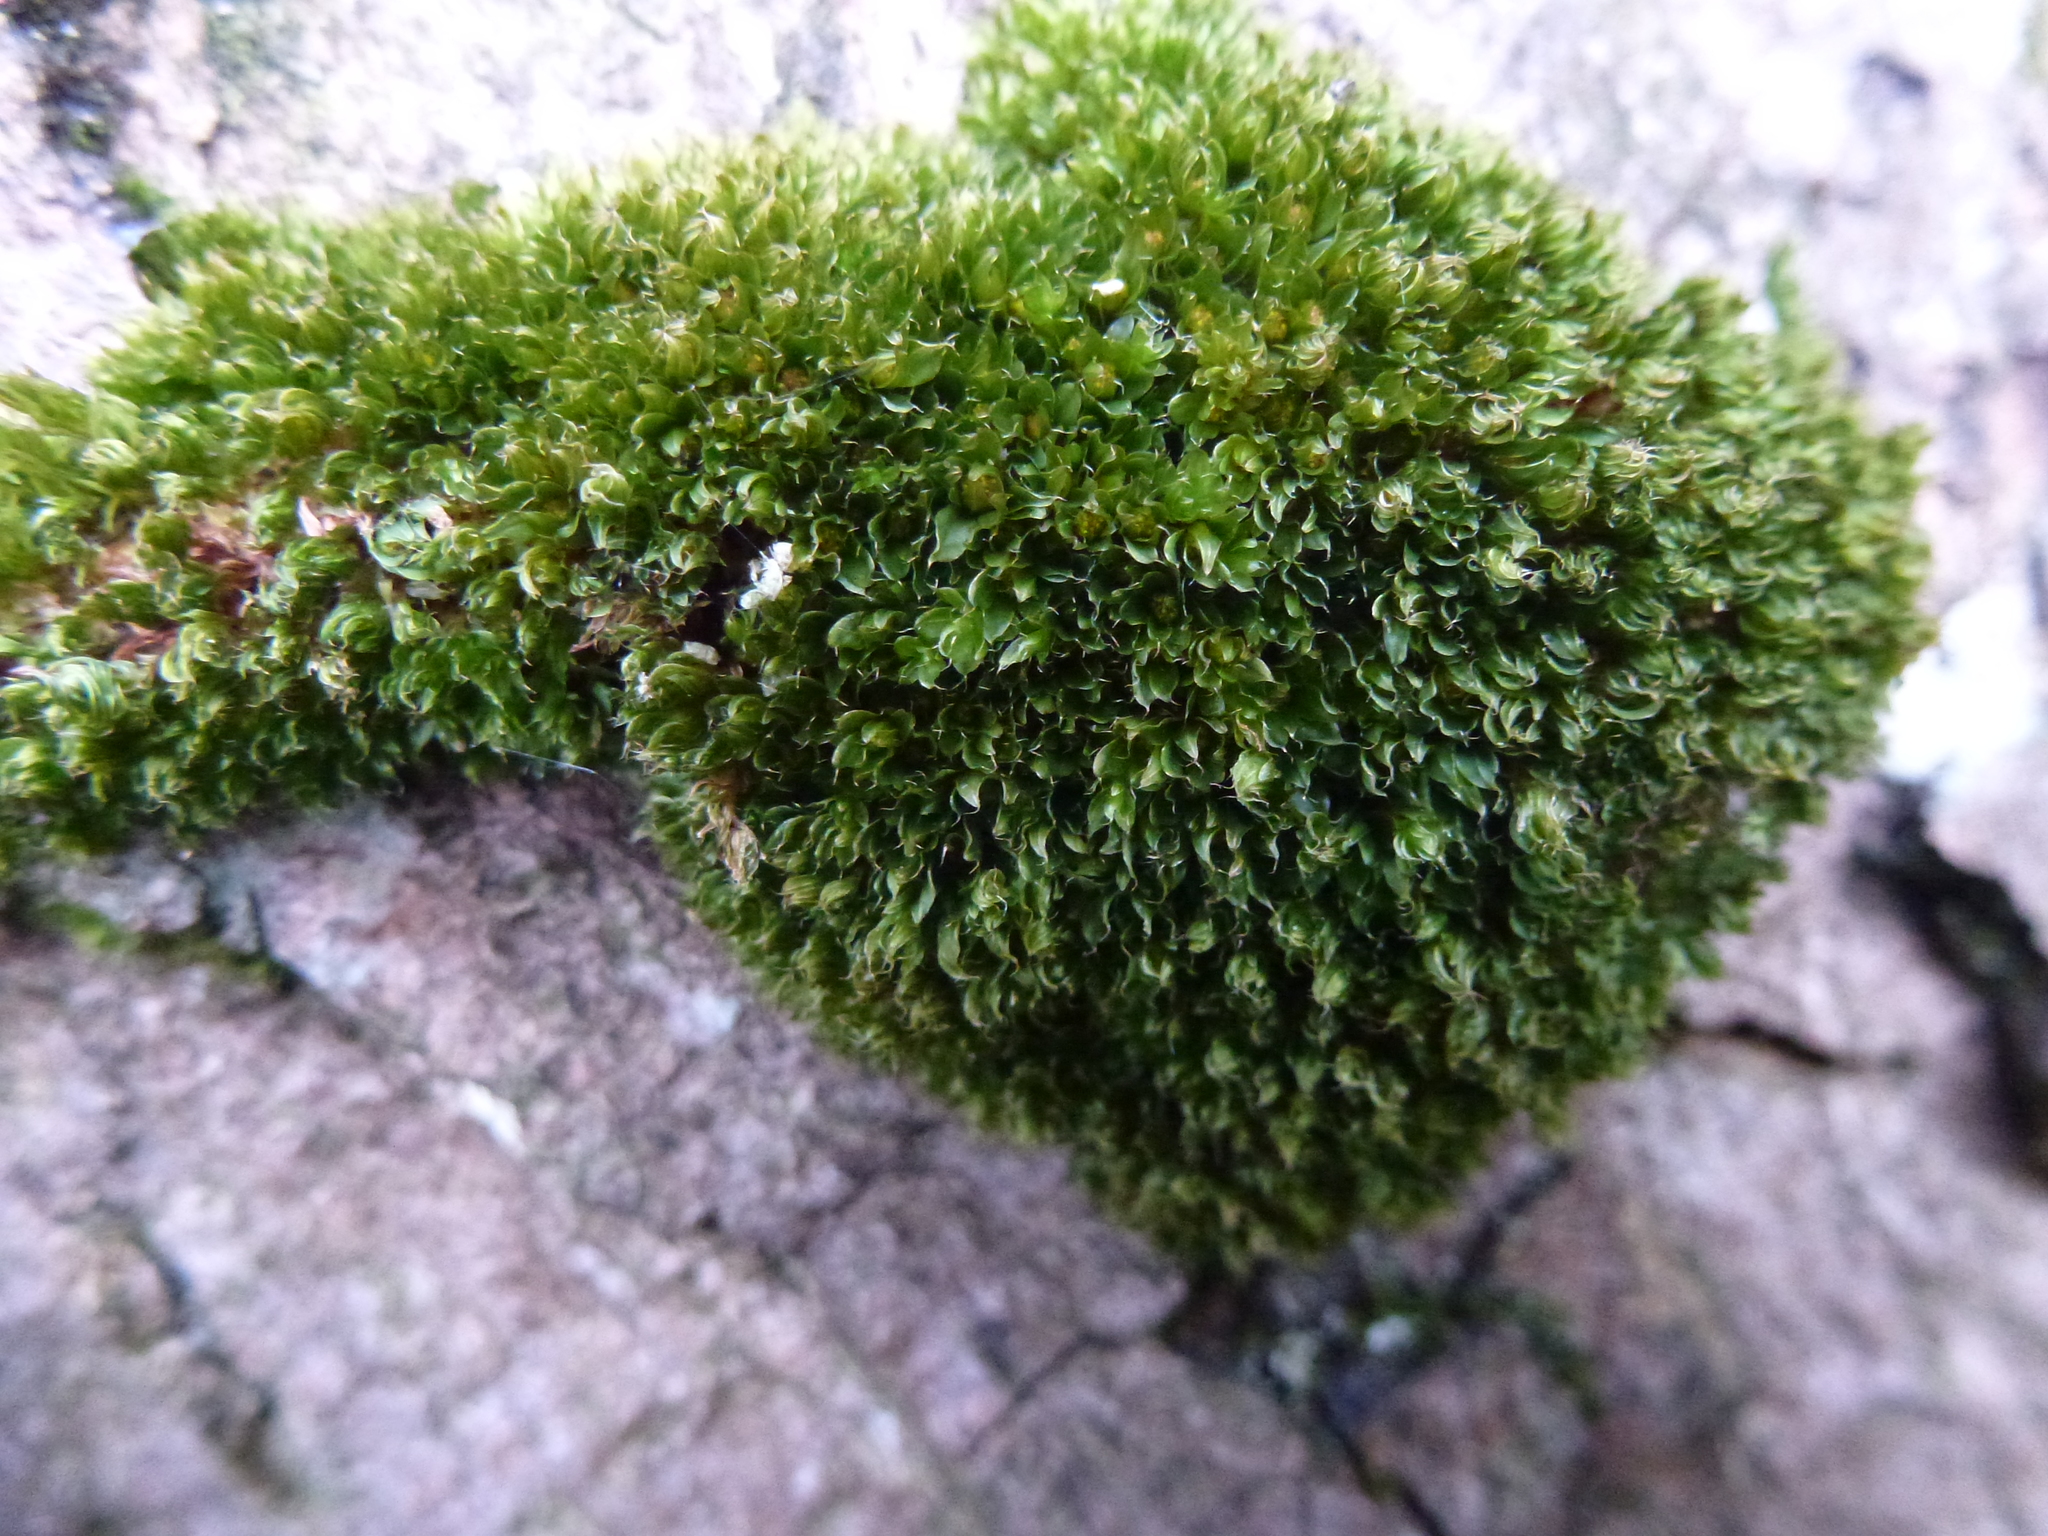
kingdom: Plantae
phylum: Bryophyta
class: Bryopsida
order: Bryales
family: Bryaceae
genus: Rosulabryum
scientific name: Rosulabryum capillare
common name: Capillary thread-moss
